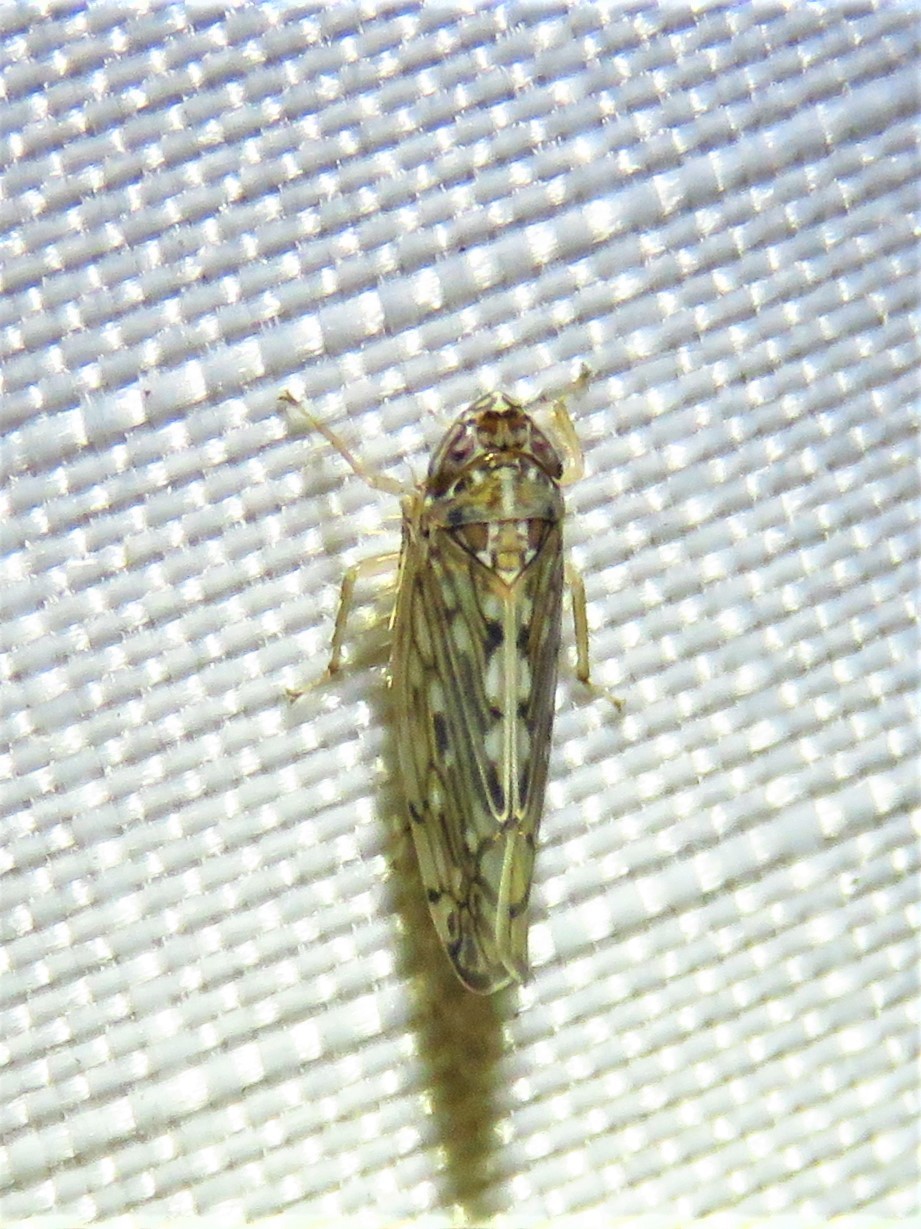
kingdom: Animalia
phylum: Arthropoda
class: Insecta
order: Hemiptera
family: Cicadellidae
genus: Osbornellus
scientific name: Osbornellus clarus
